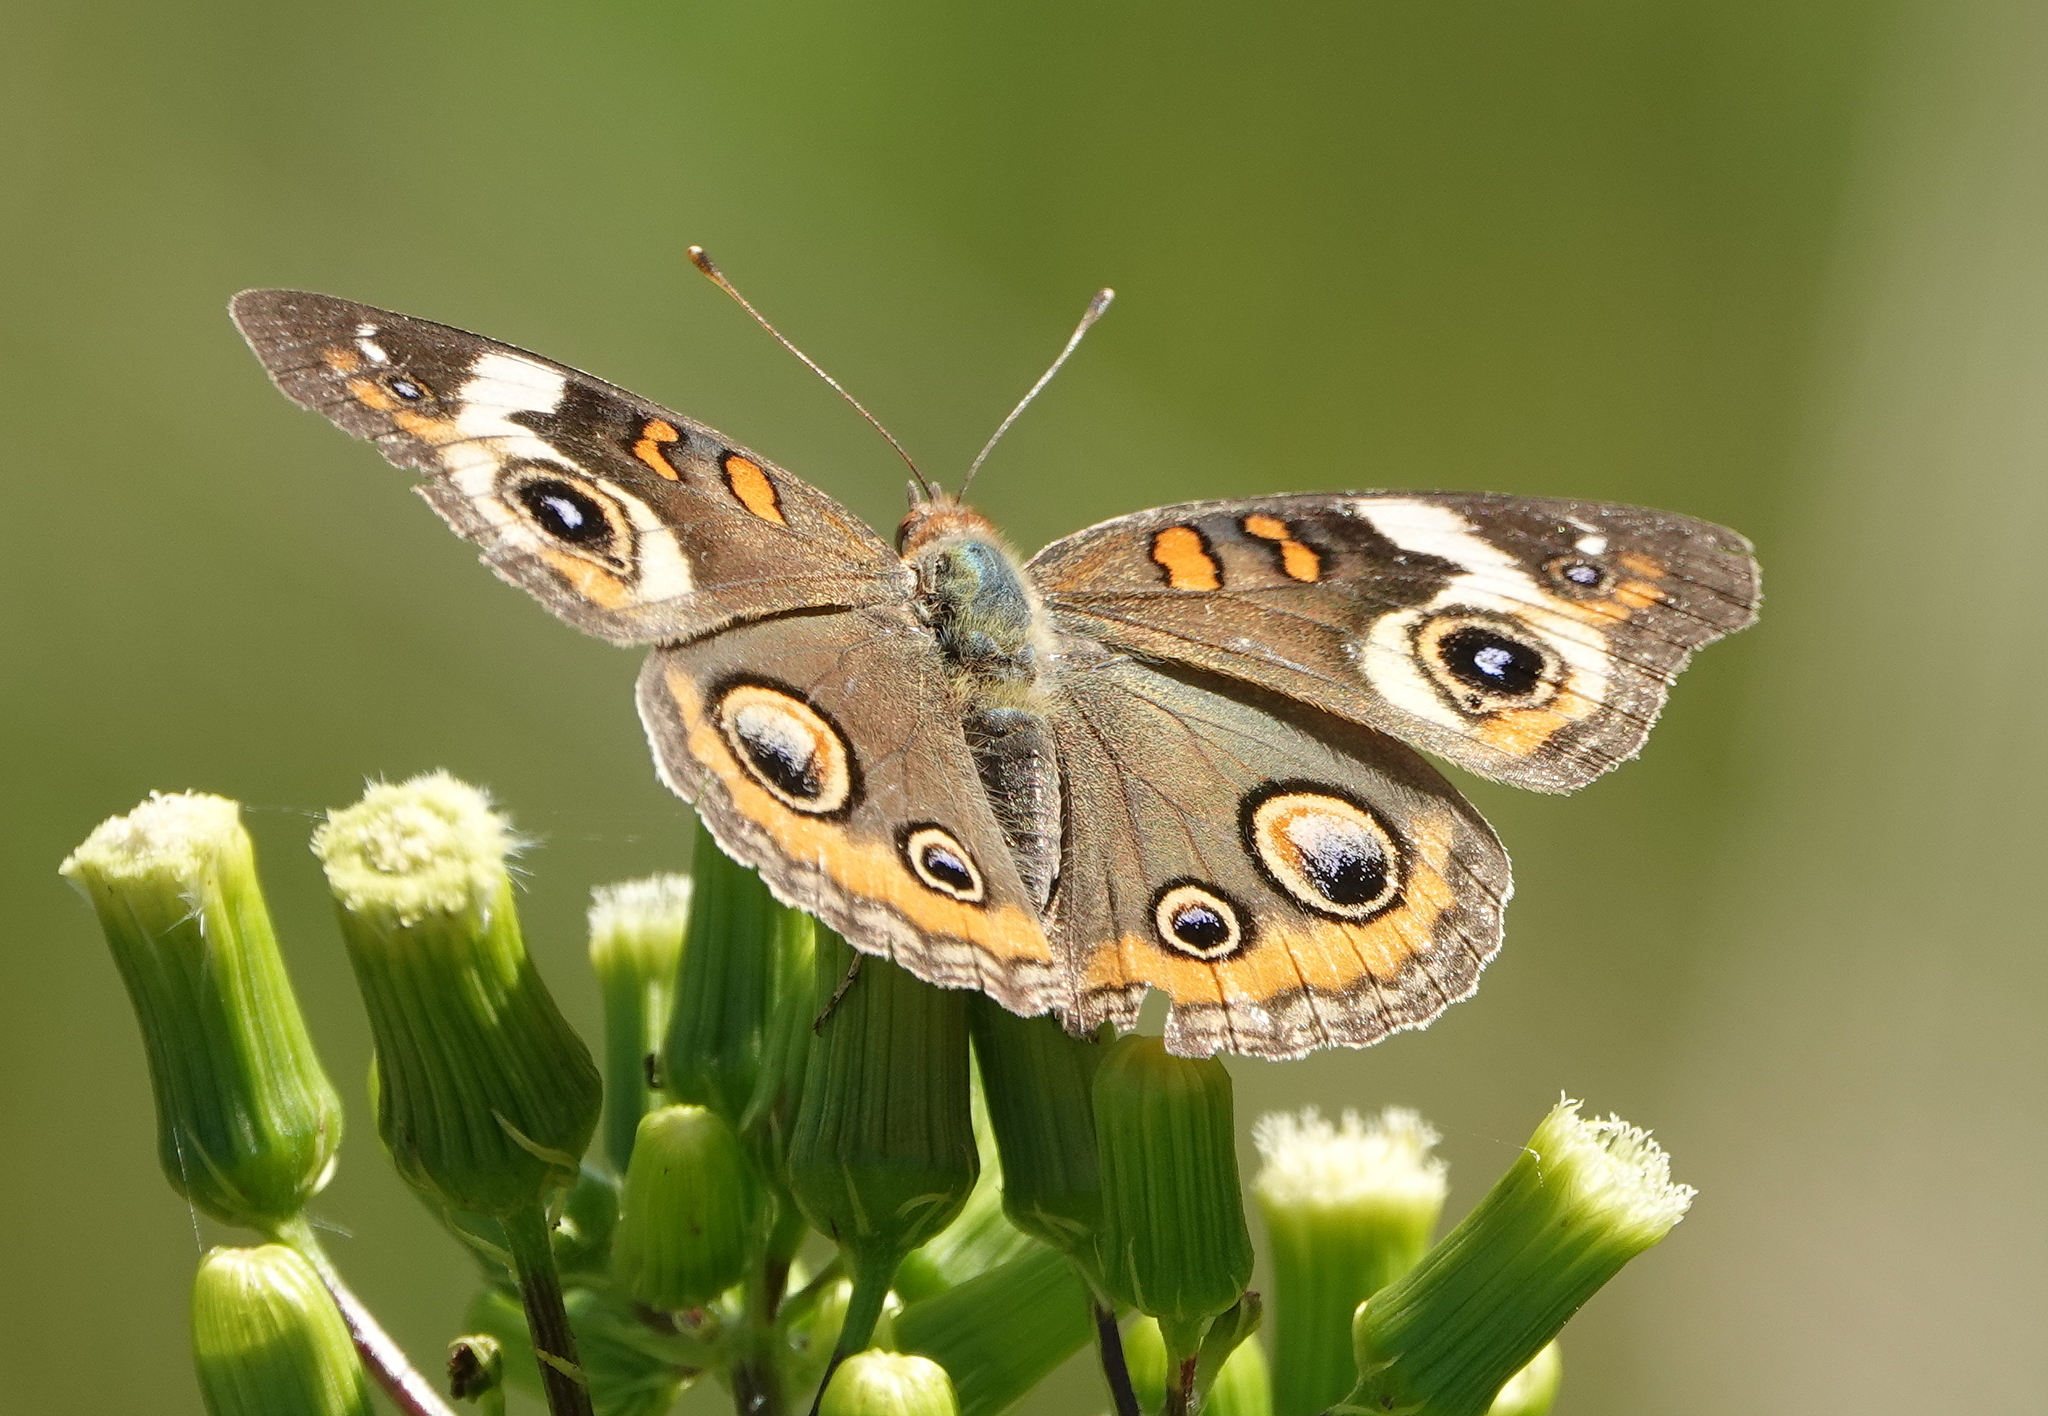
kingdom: Animalia
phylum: Arthropoda
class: Insecta
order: Lepidoptera
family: Nymphalidae
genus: Junonia
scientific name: Junonia coenia
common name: Common buckeye
